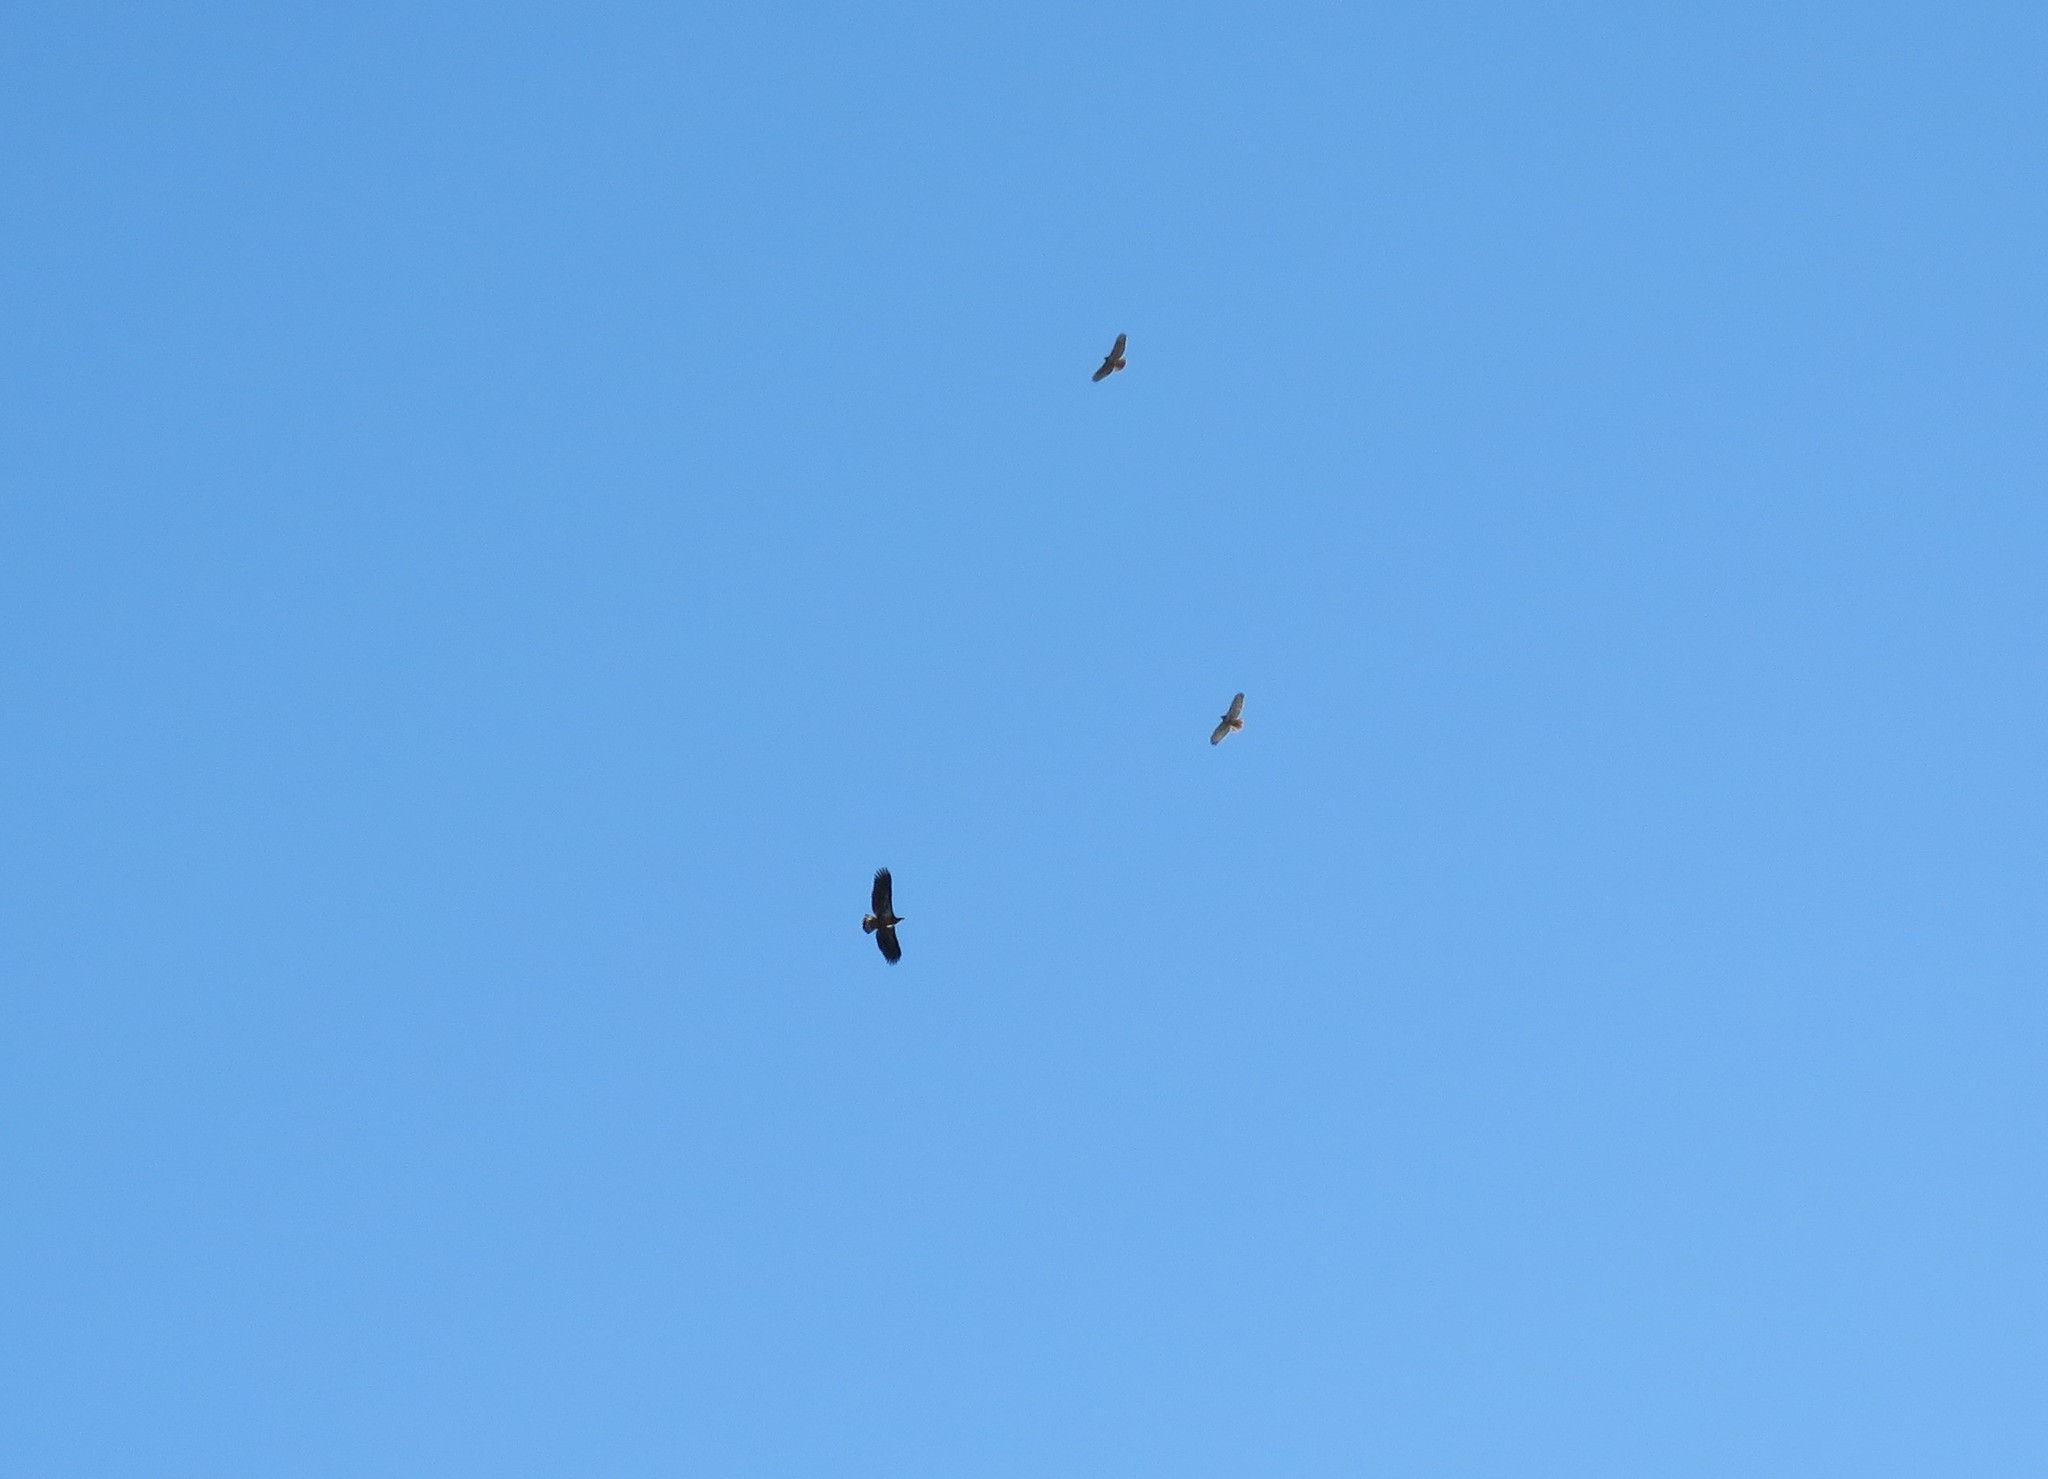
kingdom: Animalia
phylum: Chordata
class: Aves
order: Accipitriformes
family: Accipitridae
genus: Buteo
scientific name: Buteo jamaicensis
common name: Red-tailed hawk
